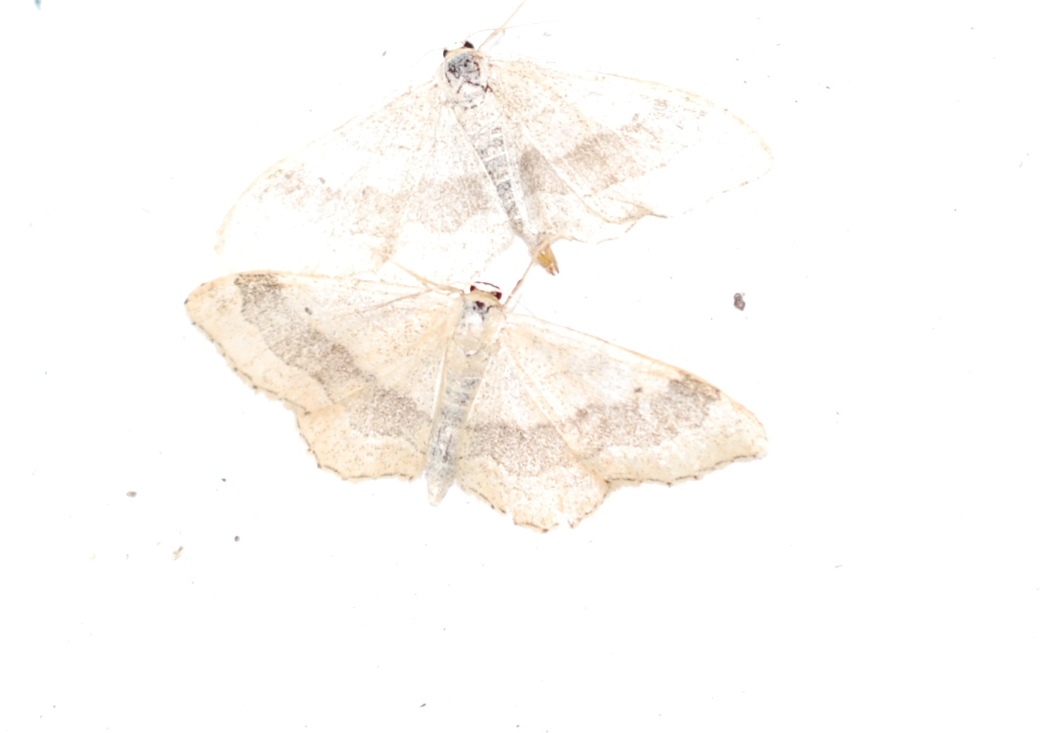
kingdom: Animalia
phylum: Arthropoda
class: Insecta
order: Lepidoptera
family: Geometridae
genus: Idaea
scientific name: Idaea aversata
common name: Riband wave
